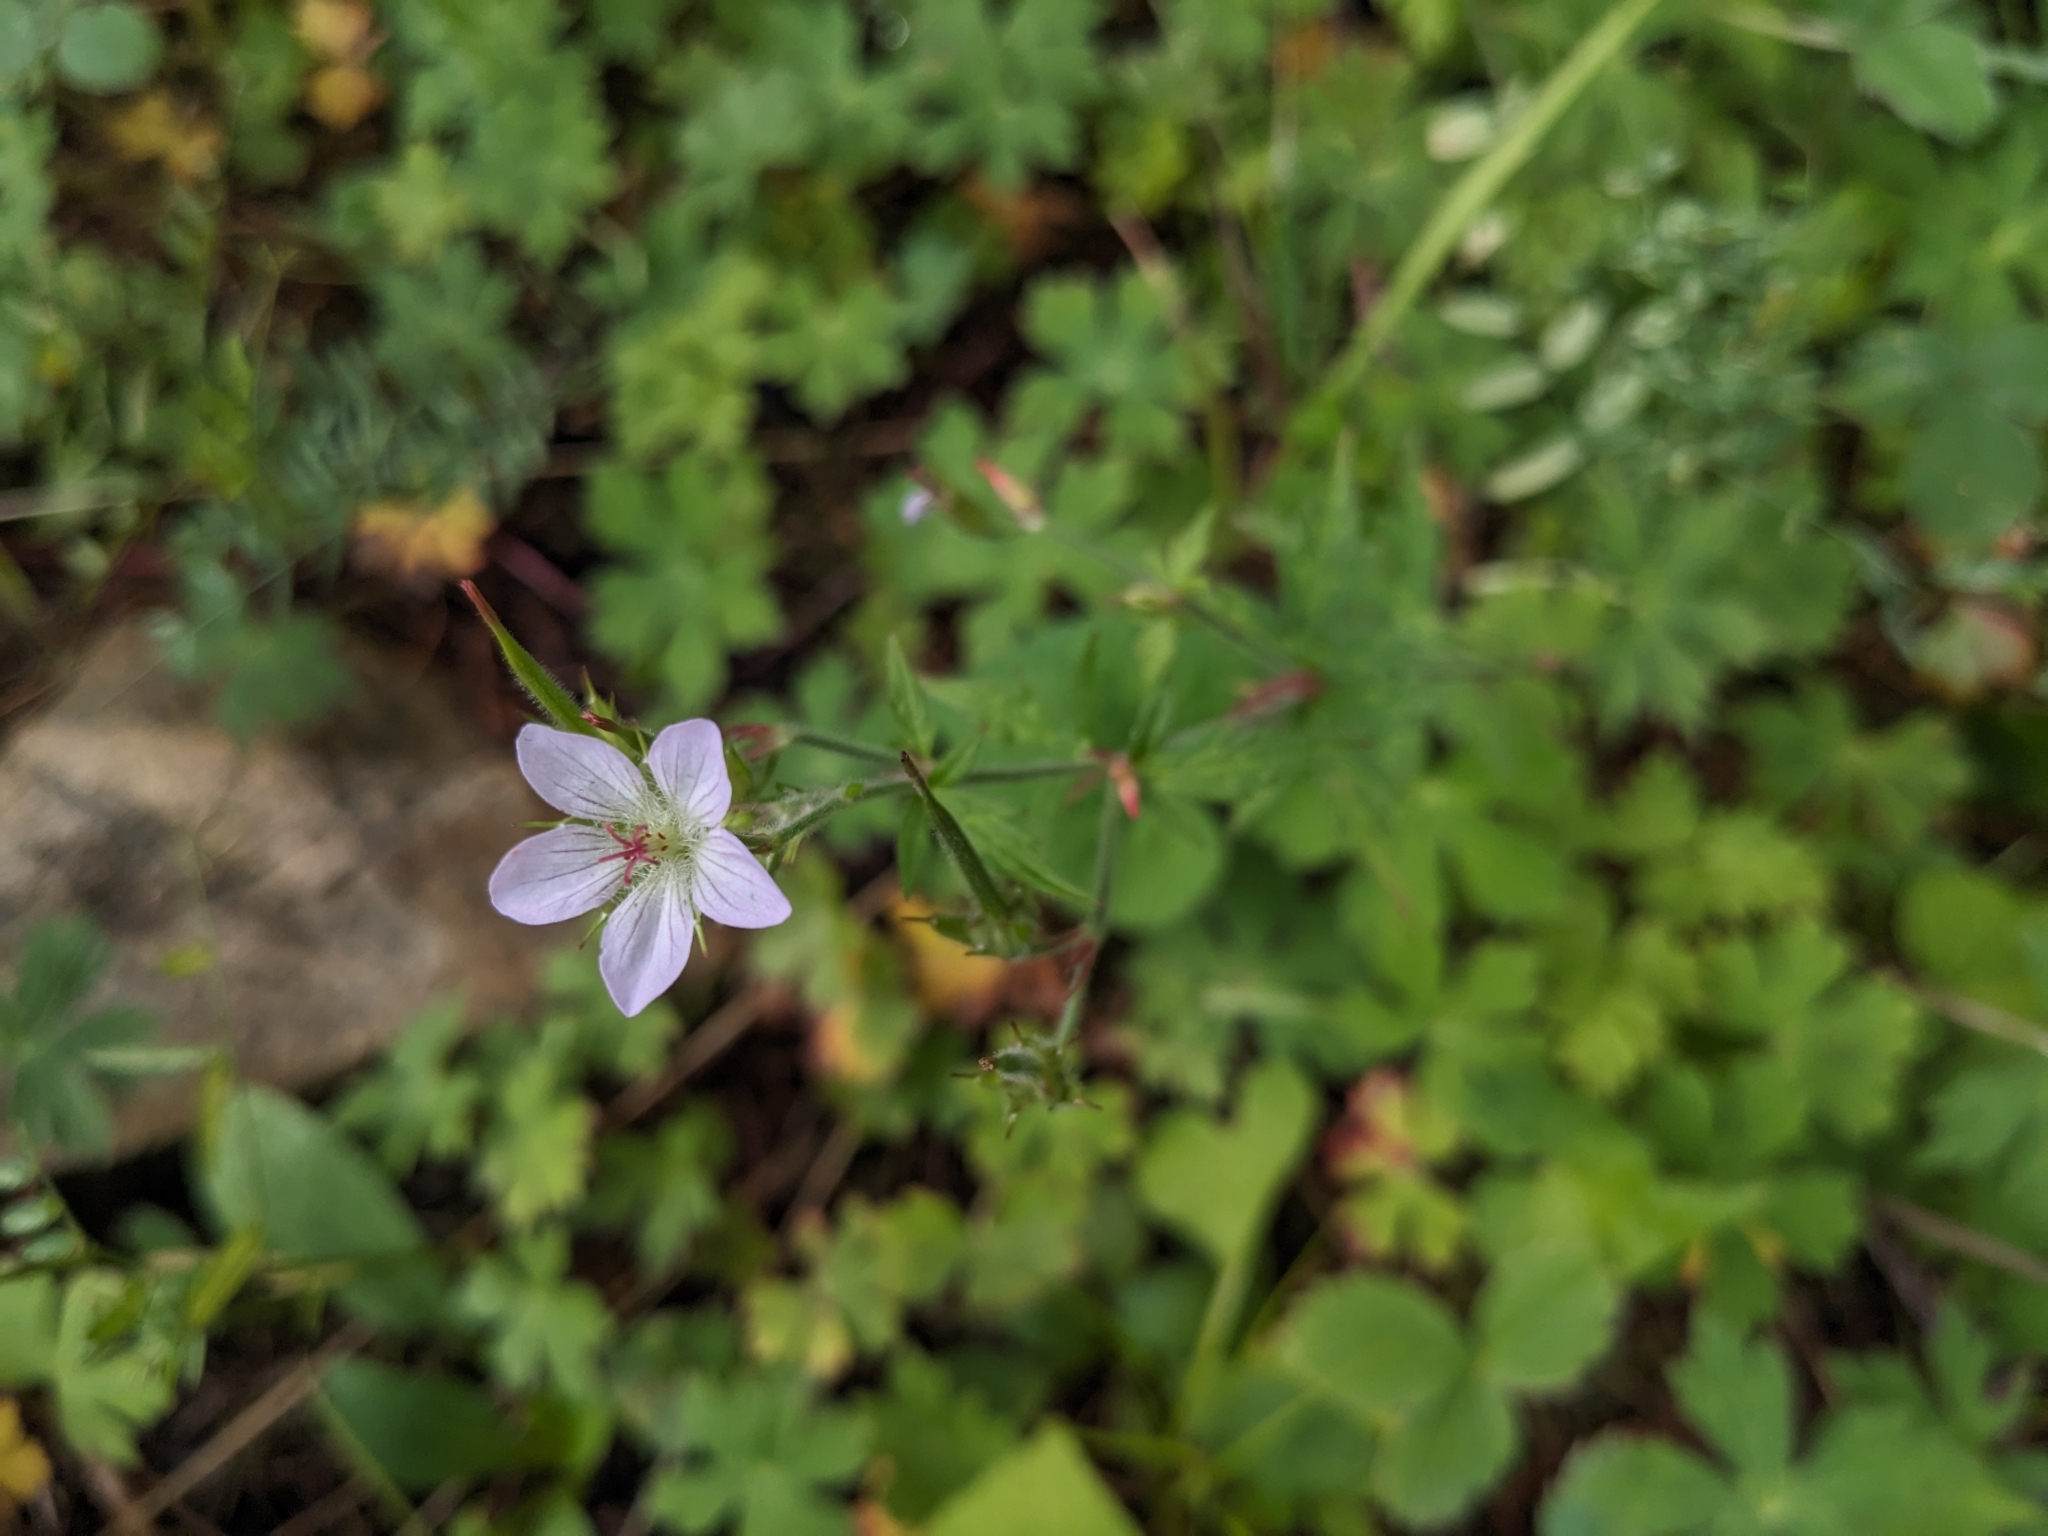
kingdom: Plantae
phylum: Tracheophyta
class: Magnoliopsida
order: Geraniales
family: Geraniaceae
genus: Geranium
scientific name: Geranium richardsonii
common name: Richardson's crane's-bill
